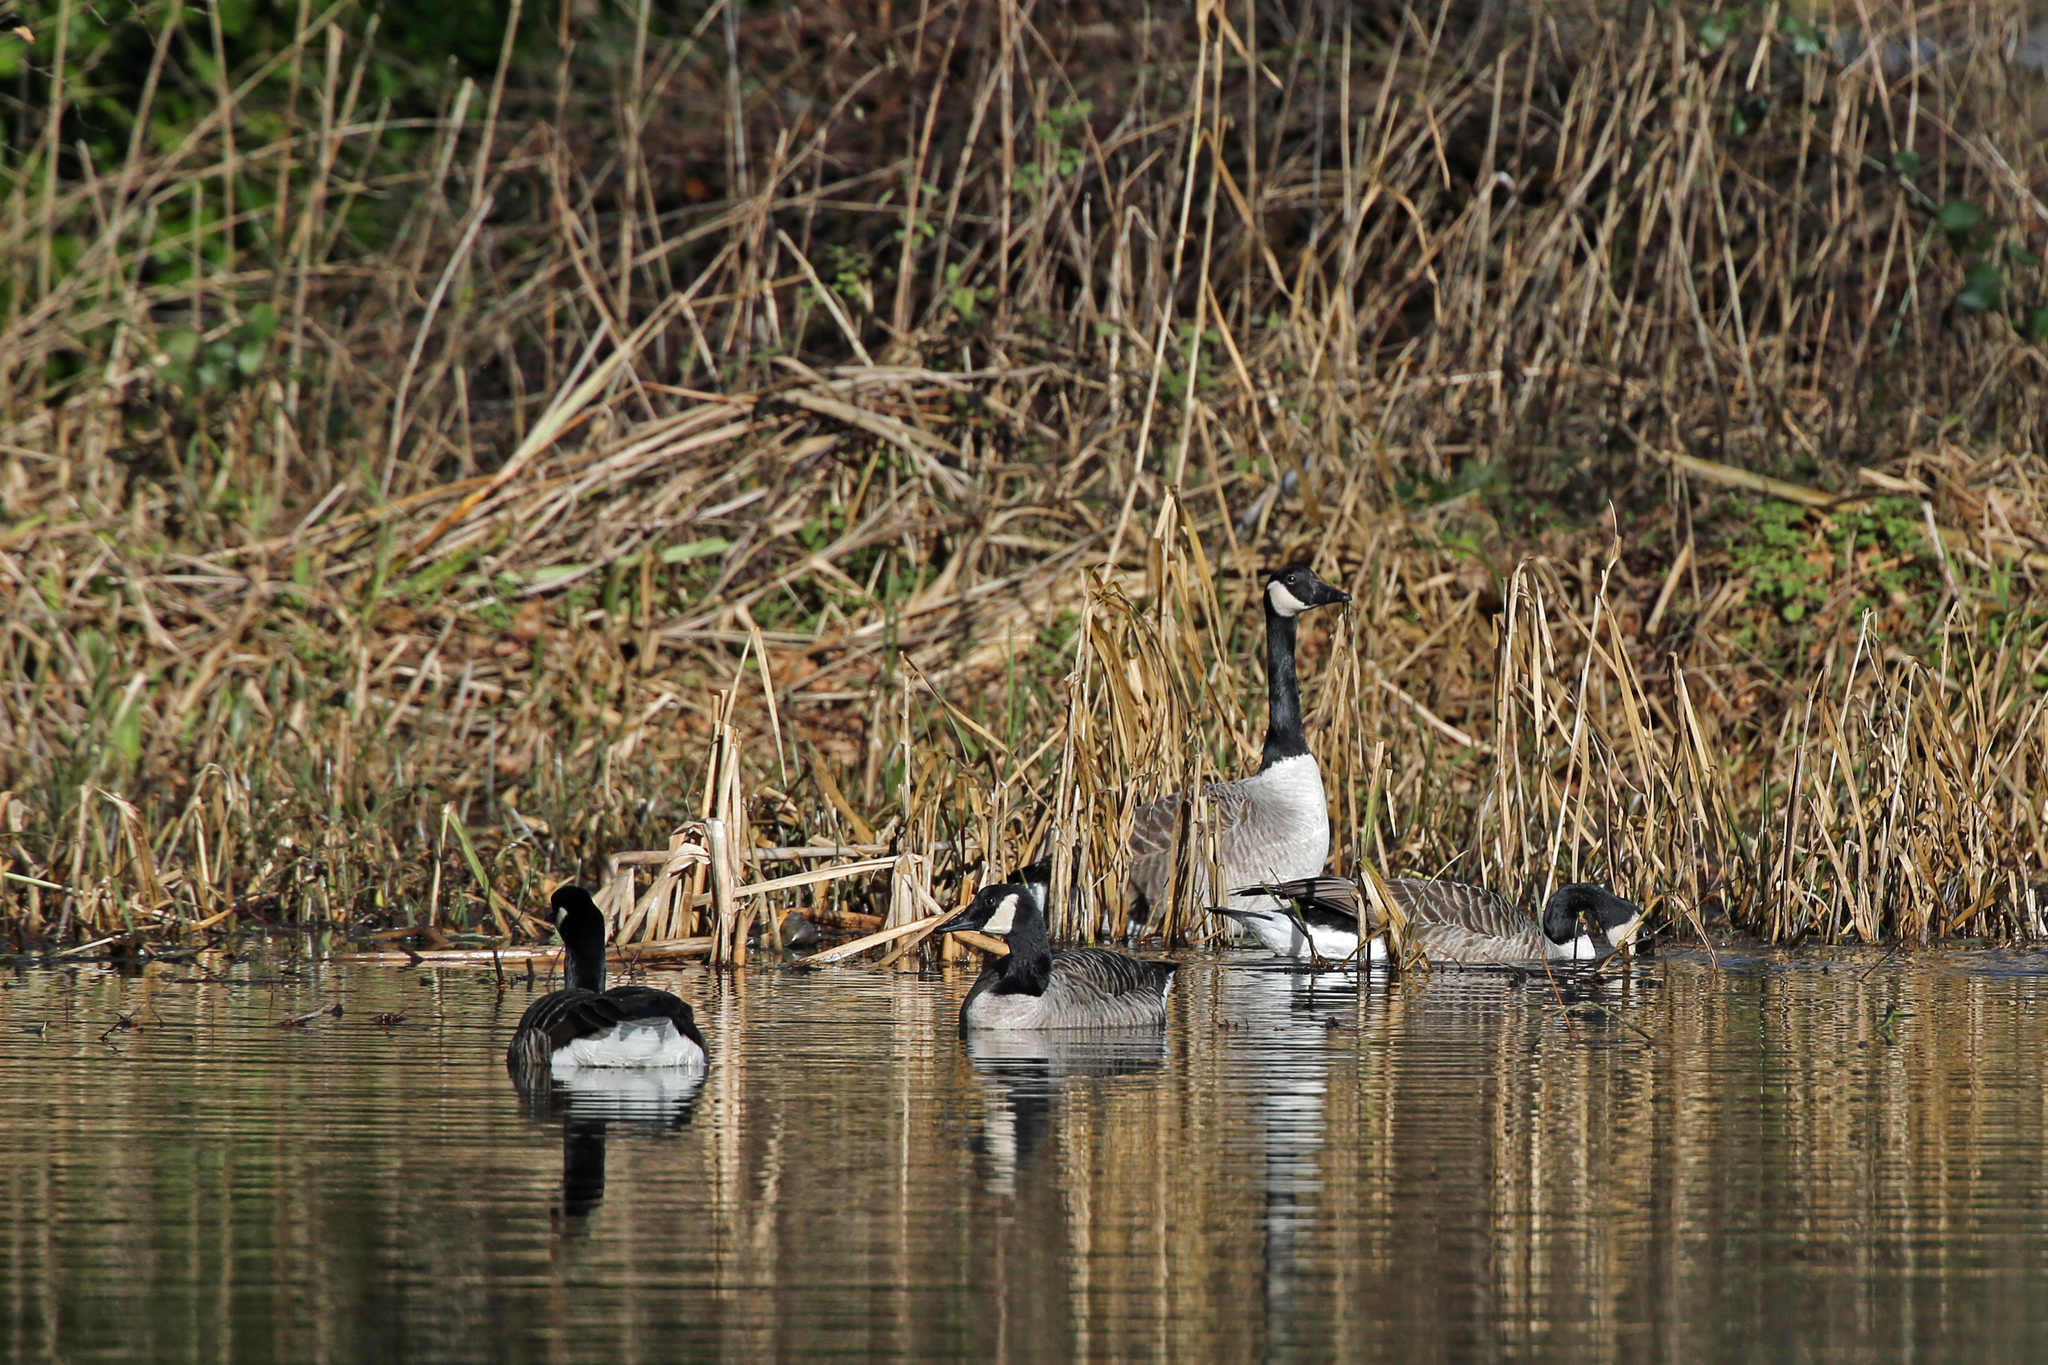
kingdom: Animalia
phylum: Chordata
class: Aves
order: Anseriformes
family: Anatidae
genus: Branta
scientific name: Branta canadensis
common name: Canada goose
